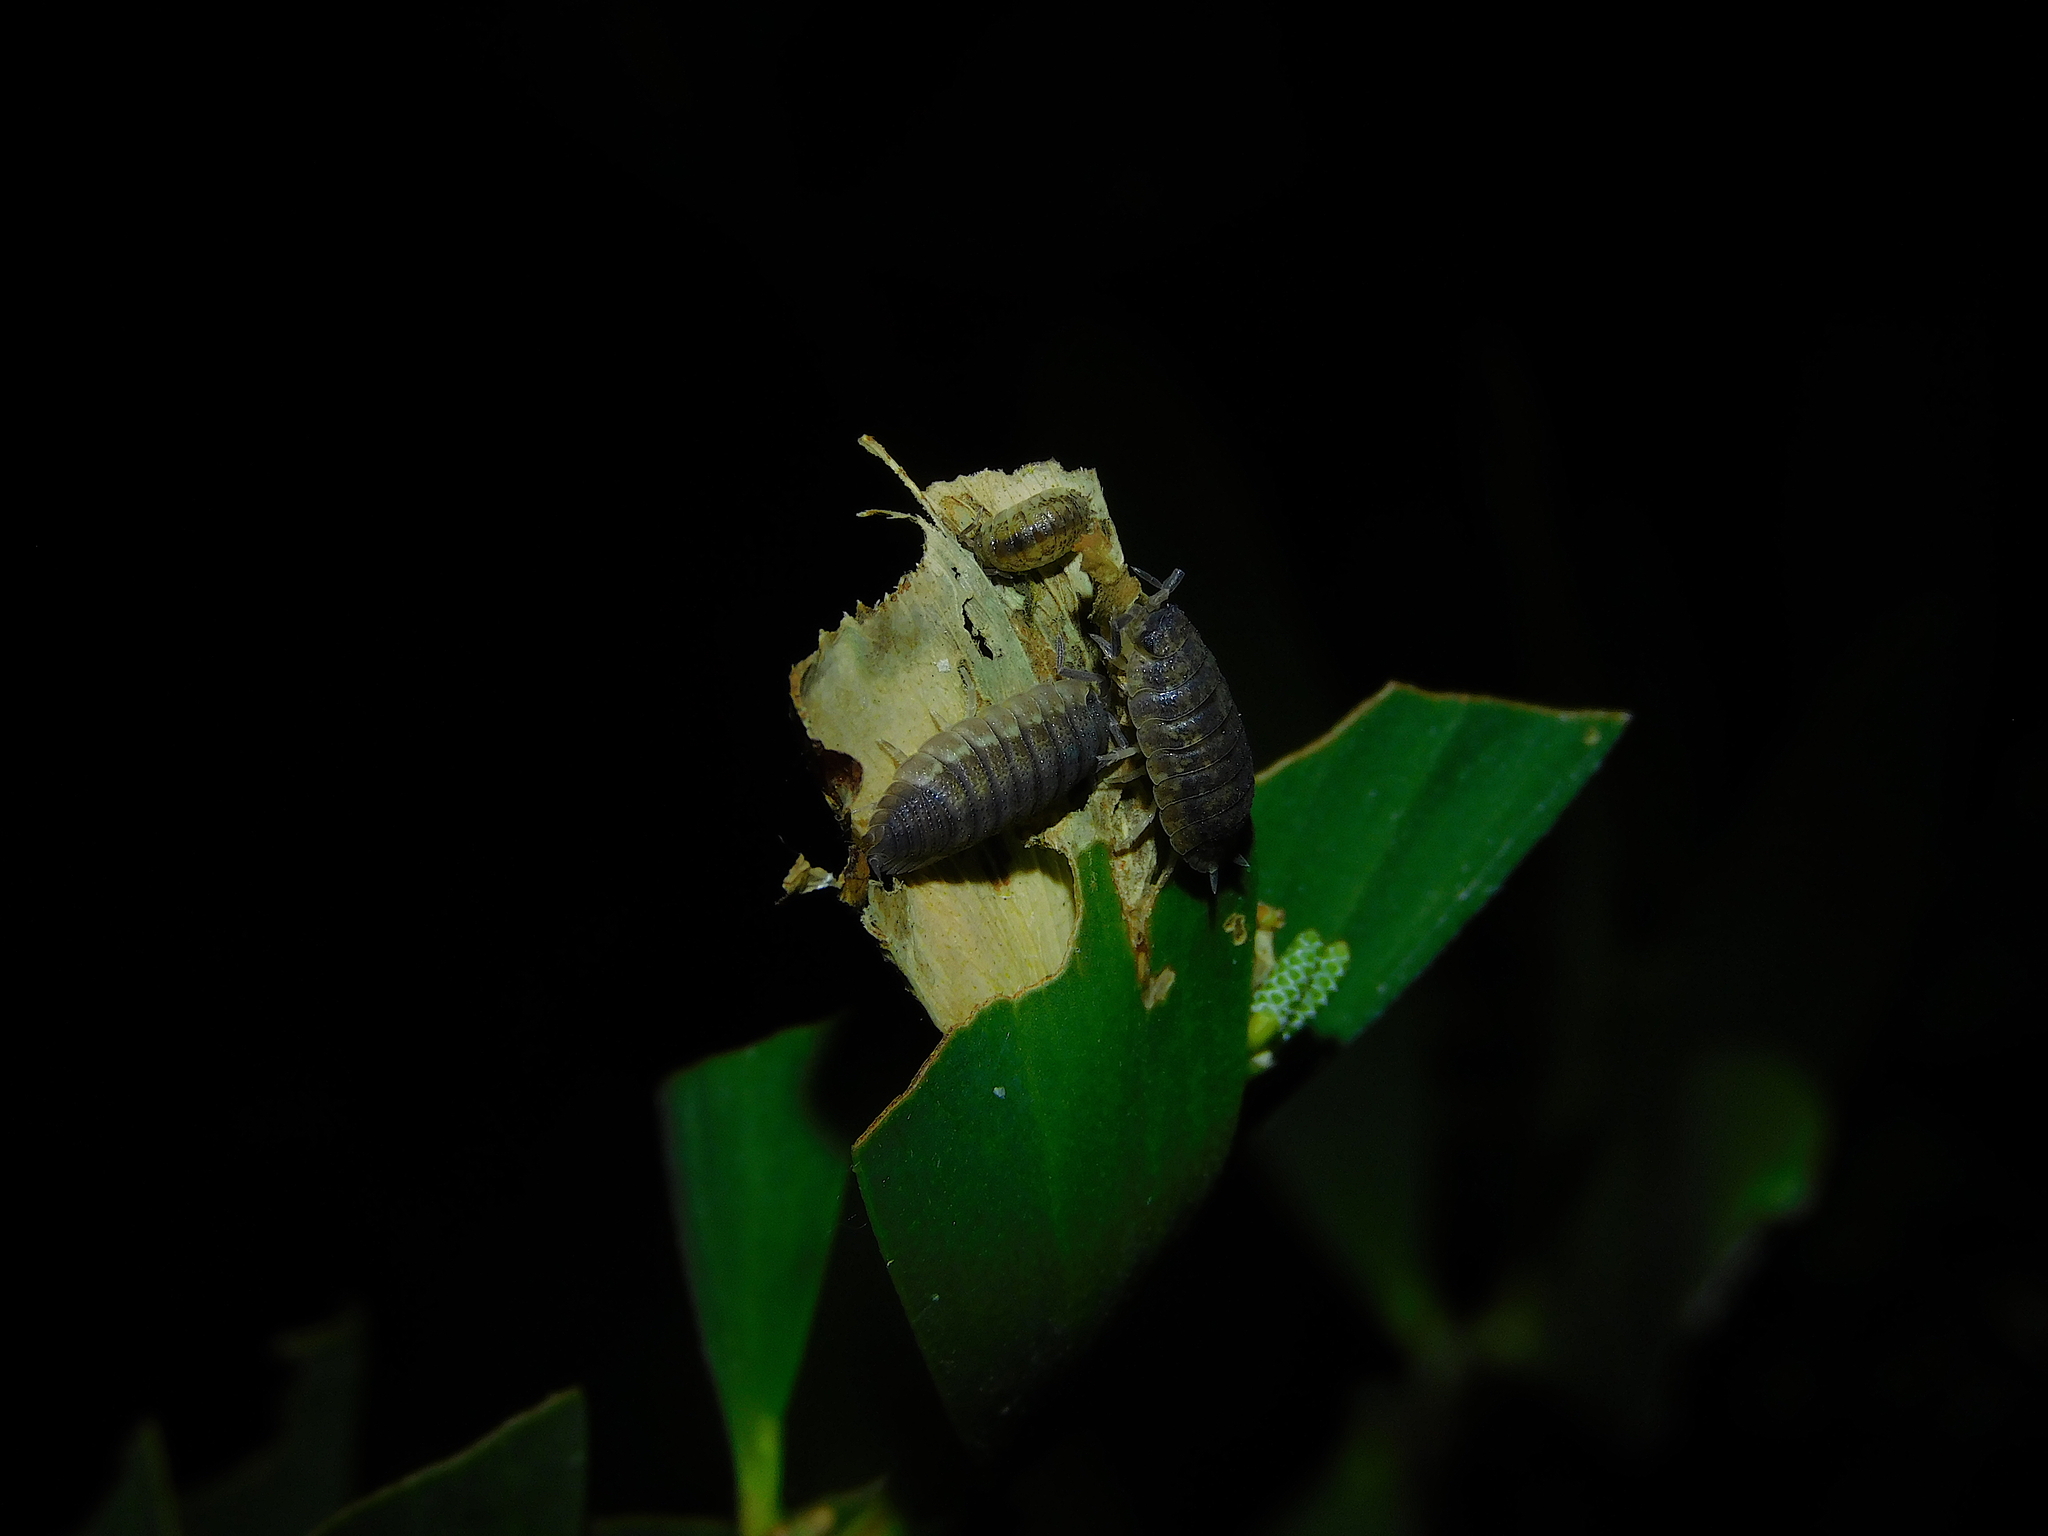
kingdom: Animalia
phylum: Arthropoda
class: Malacostraca
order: Isopoda
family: Porcellionidae
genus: Porcellio
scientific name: Porcellio scaber
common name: Common rough woodlouse
